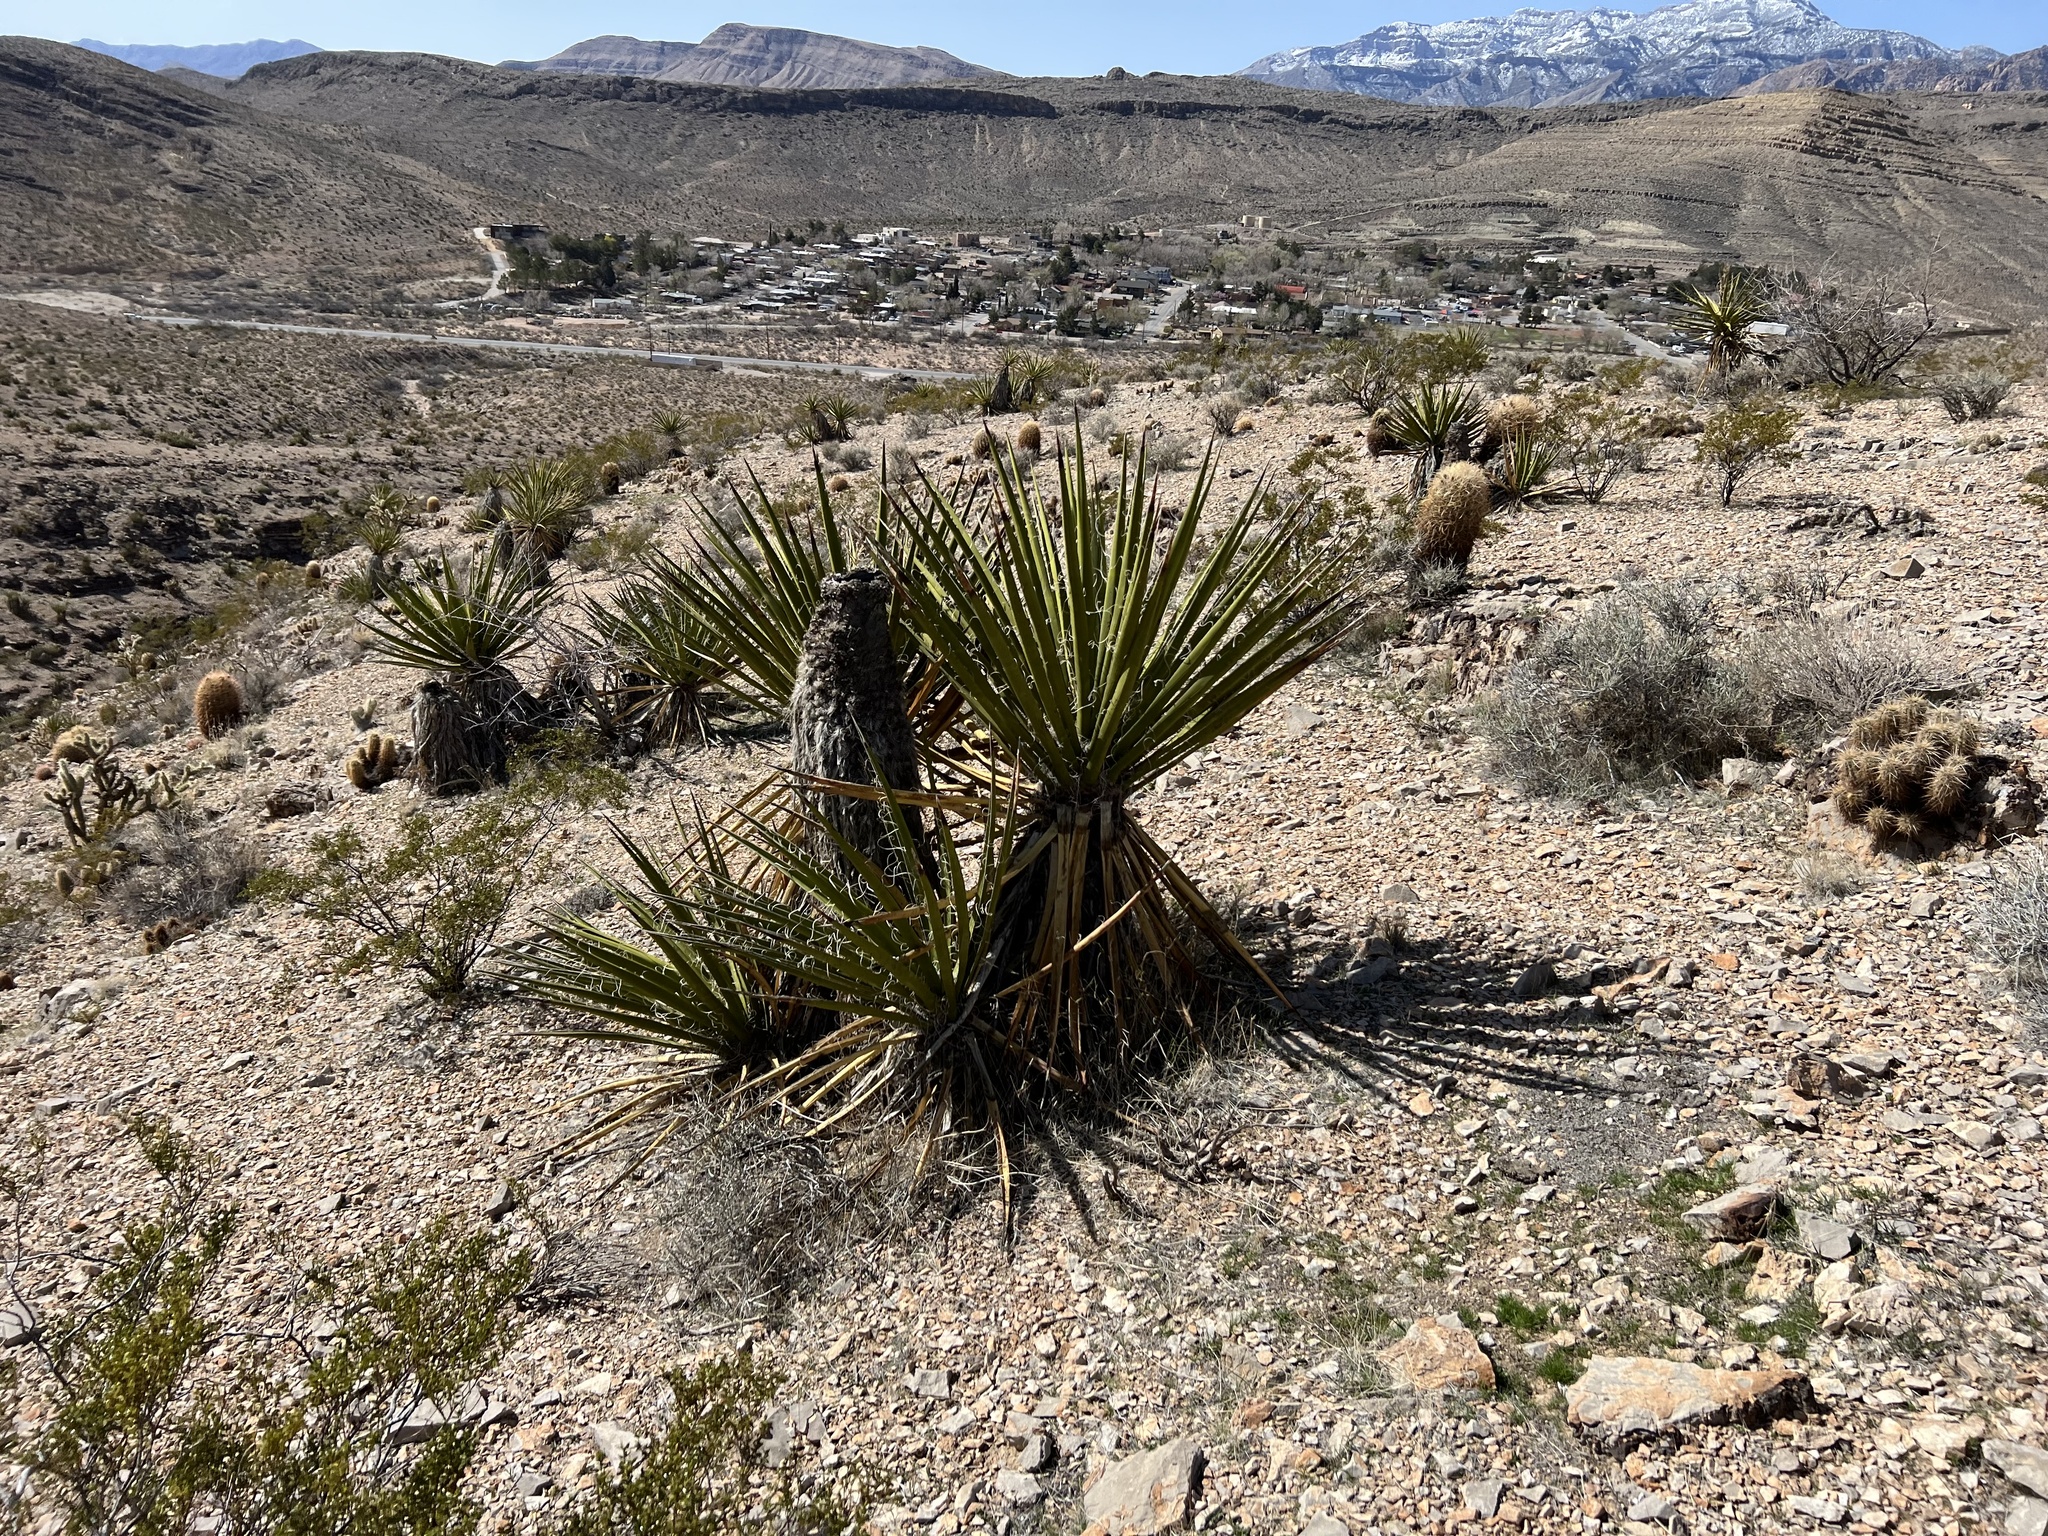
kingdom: Plantae
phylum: Tracheophyta
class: Liliopsida
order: Asparagales
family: Asparagaceae
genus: Yucca
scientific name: Yucca schidigera
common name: Mojave yucca
